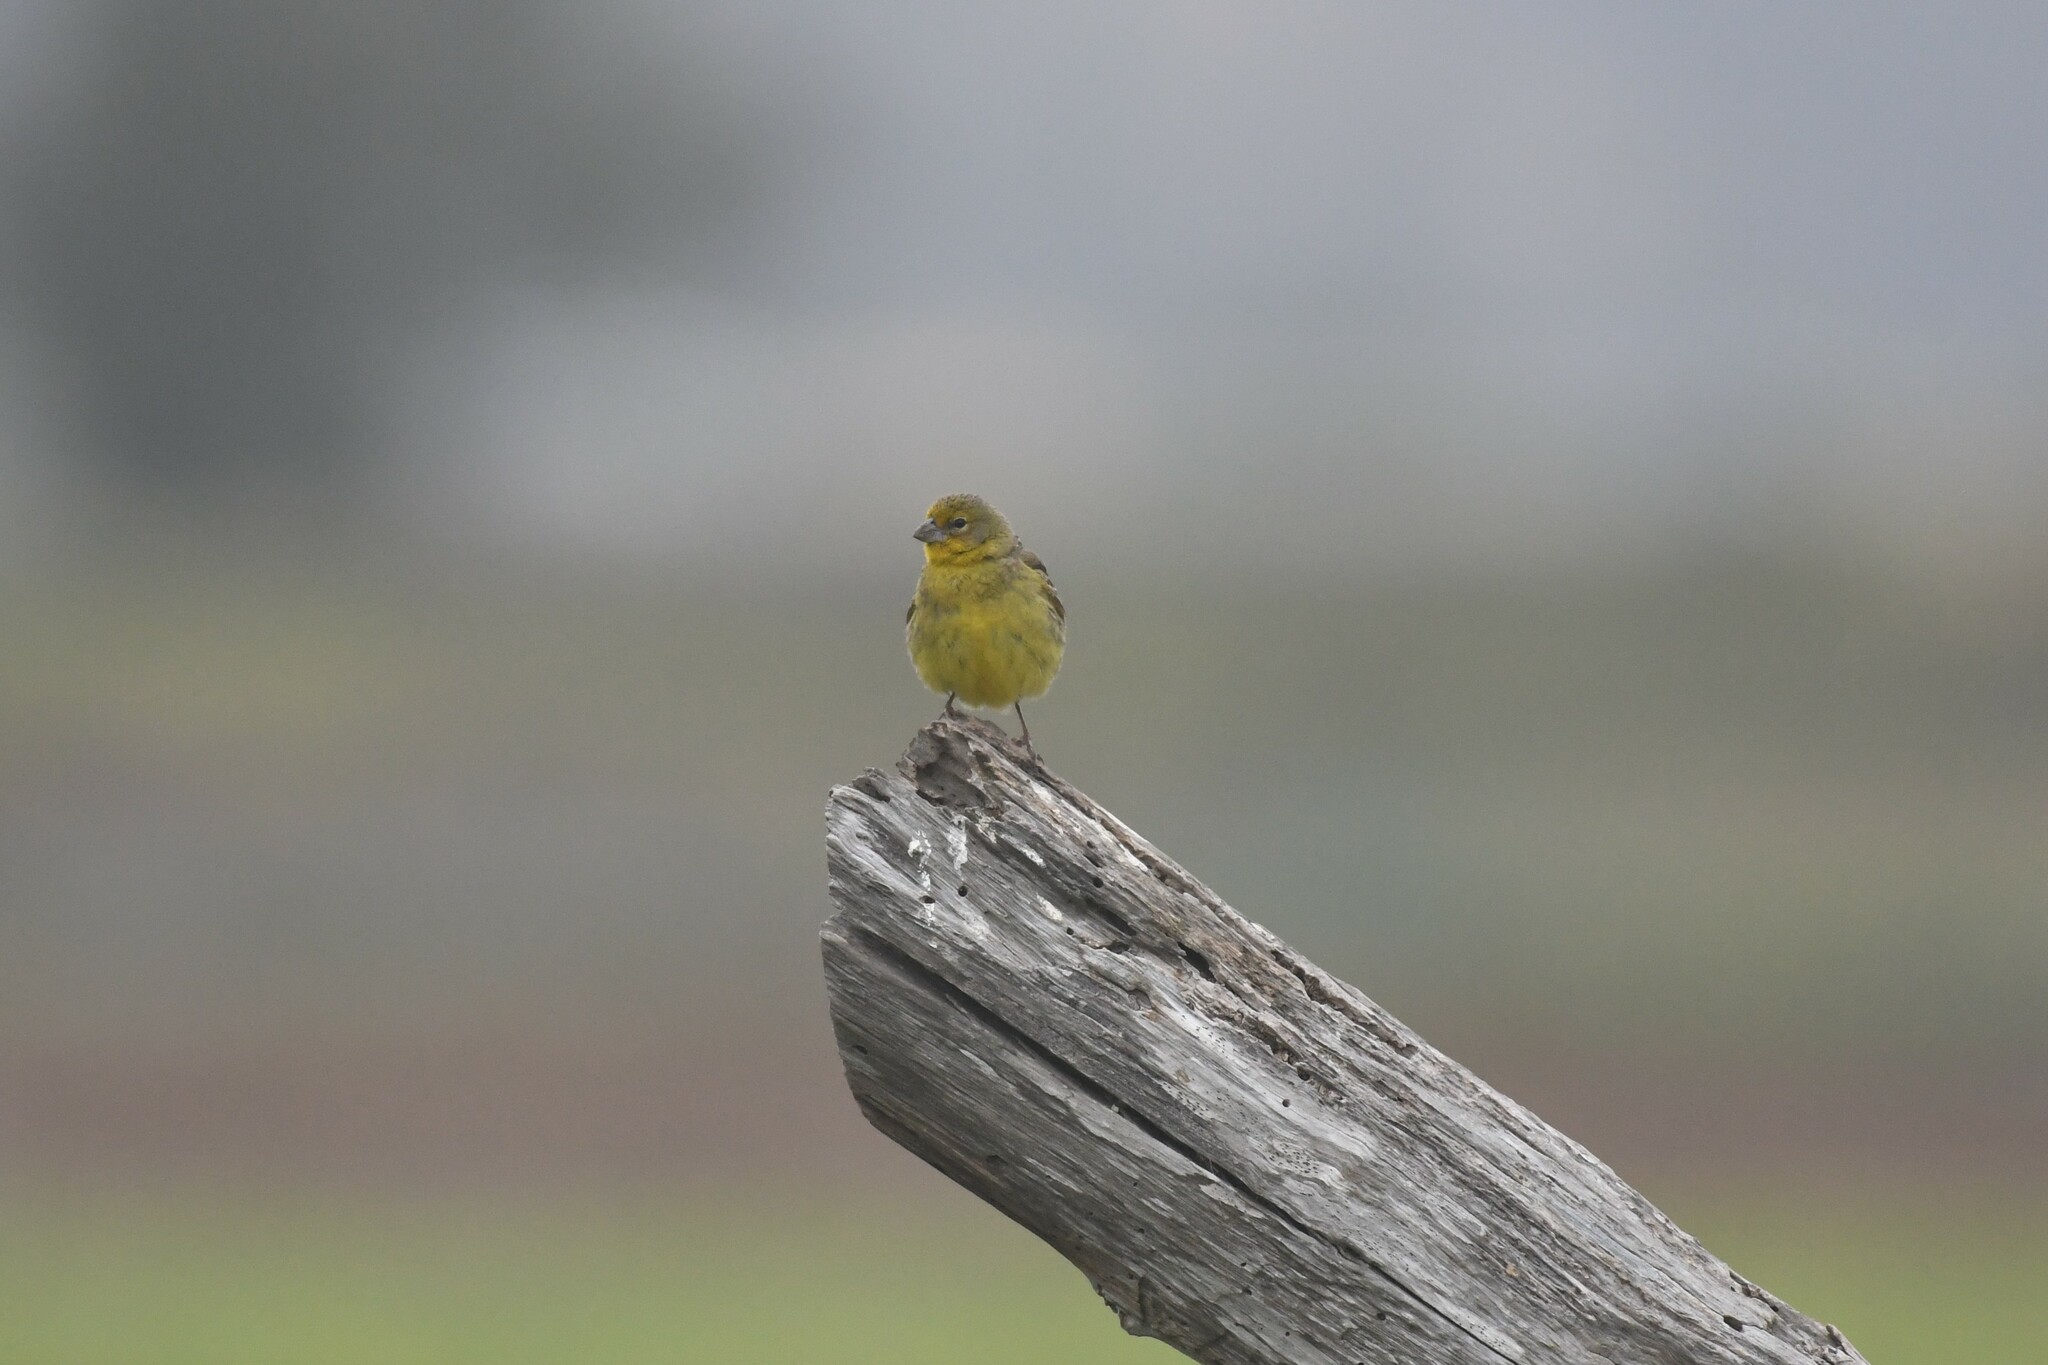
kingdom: Animalia
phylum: Chordata
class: Aves
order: Passeriformes
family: Thraupidae
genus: Sicalis
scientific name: Sicalis luteola
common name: Grassland yellow-finch
